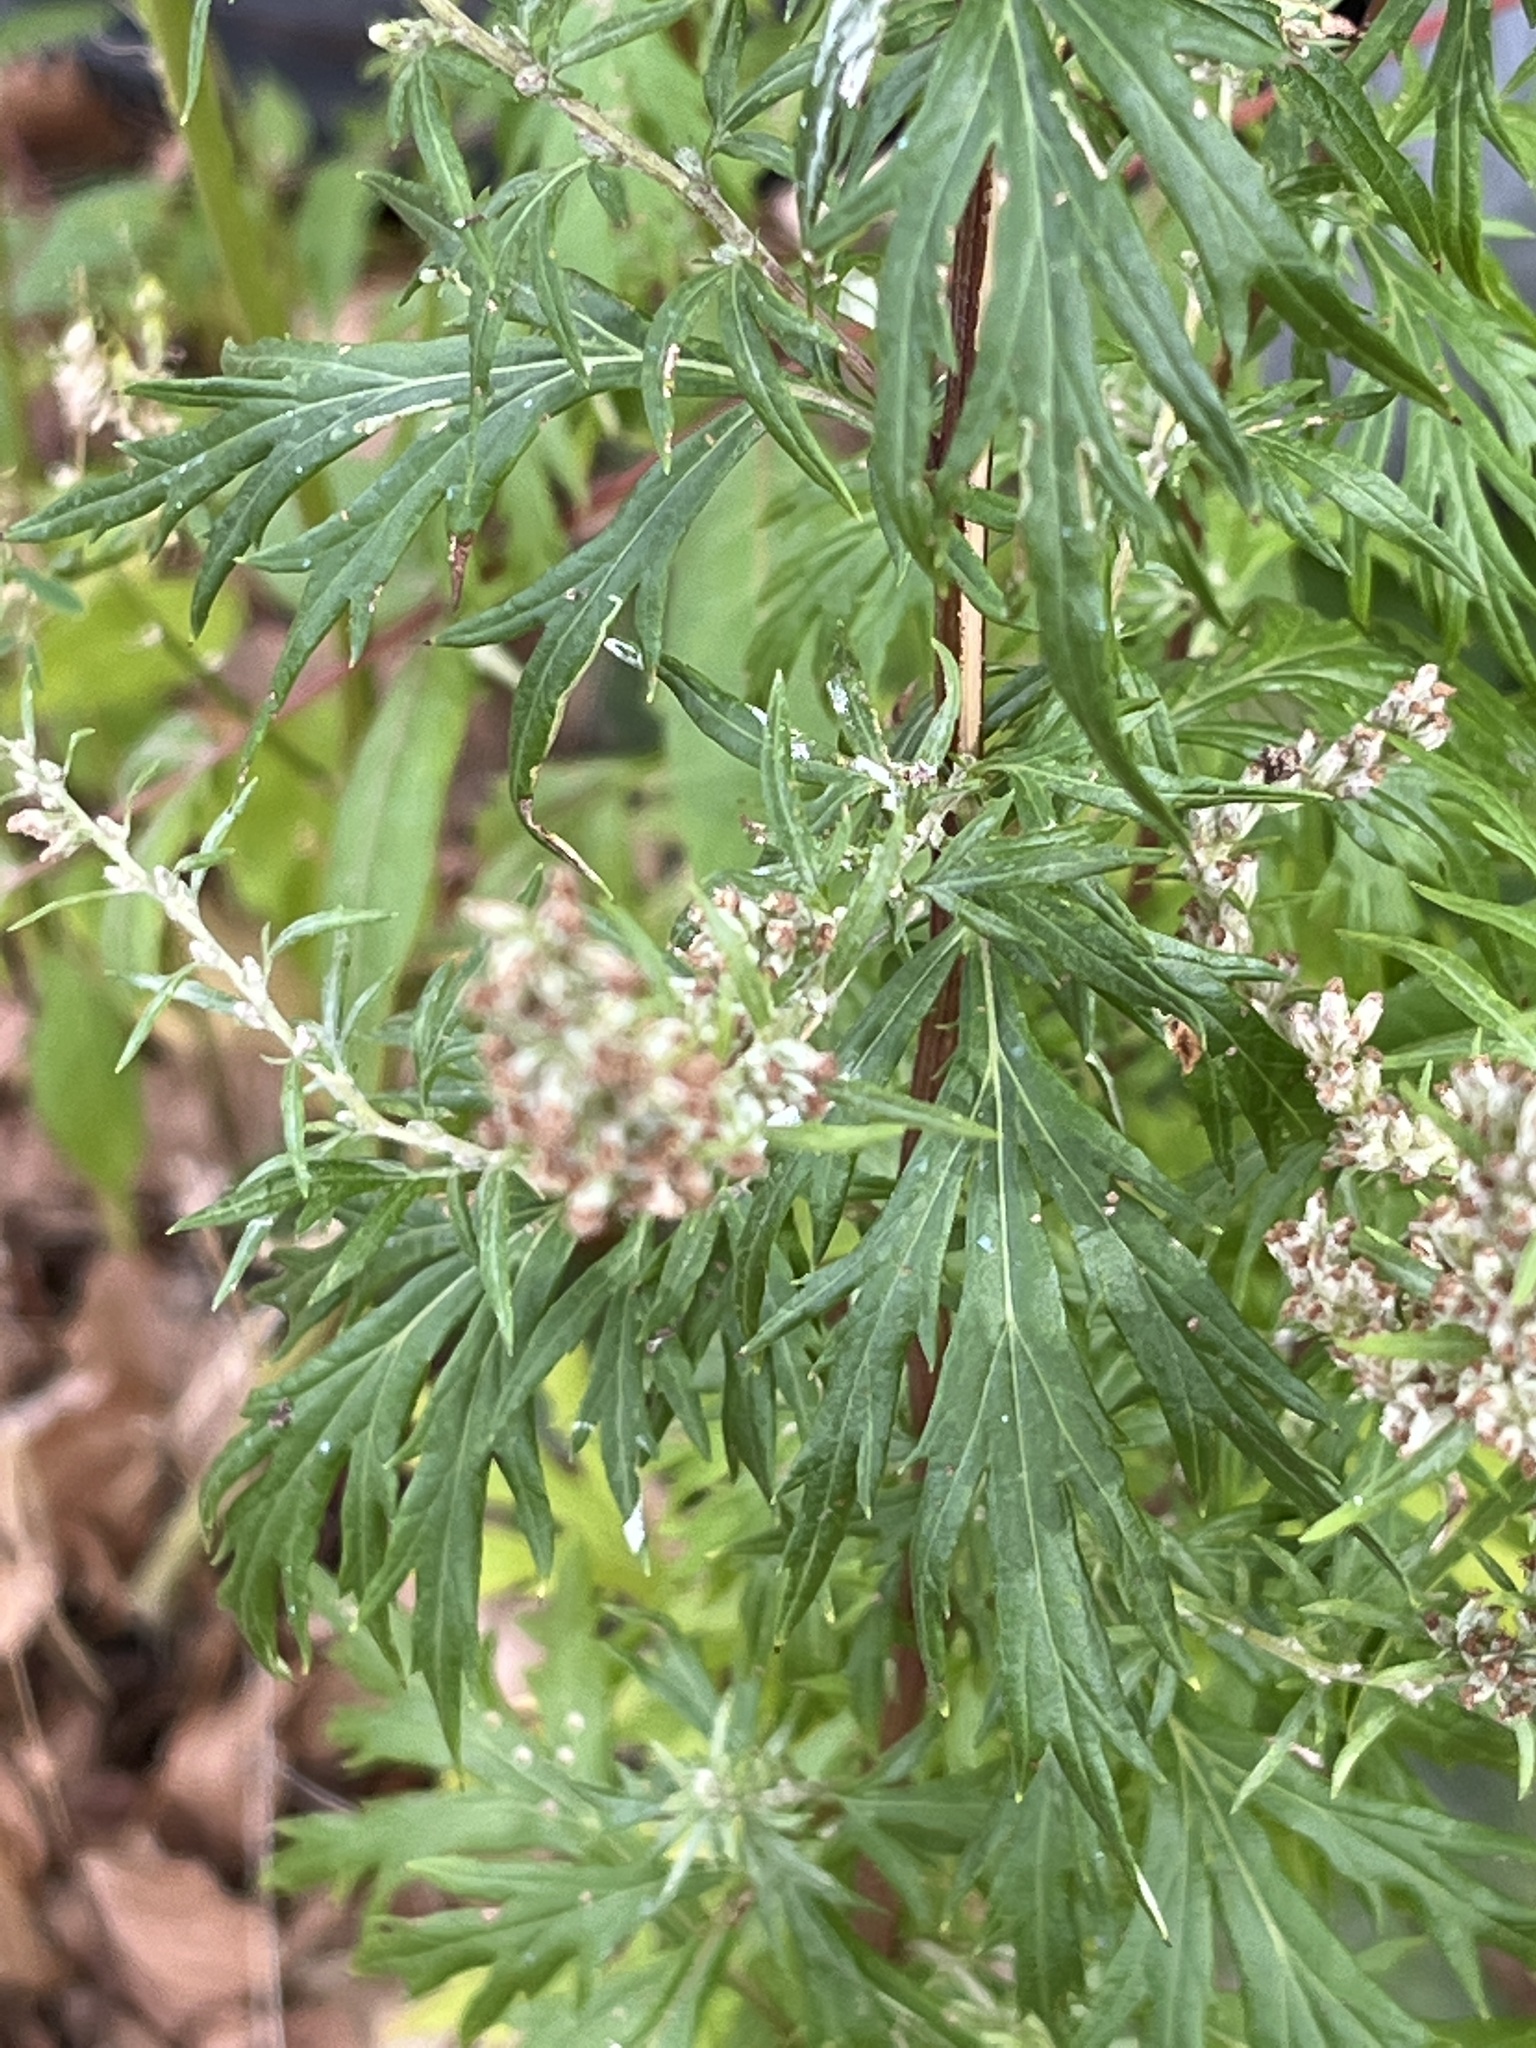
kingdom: Plantae
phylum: Tracheophyta
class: Magnoliopsida
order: Asterales
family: Asteraceae
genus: Artemisia
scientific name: Artemisia vulgaris
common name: Mugwort
